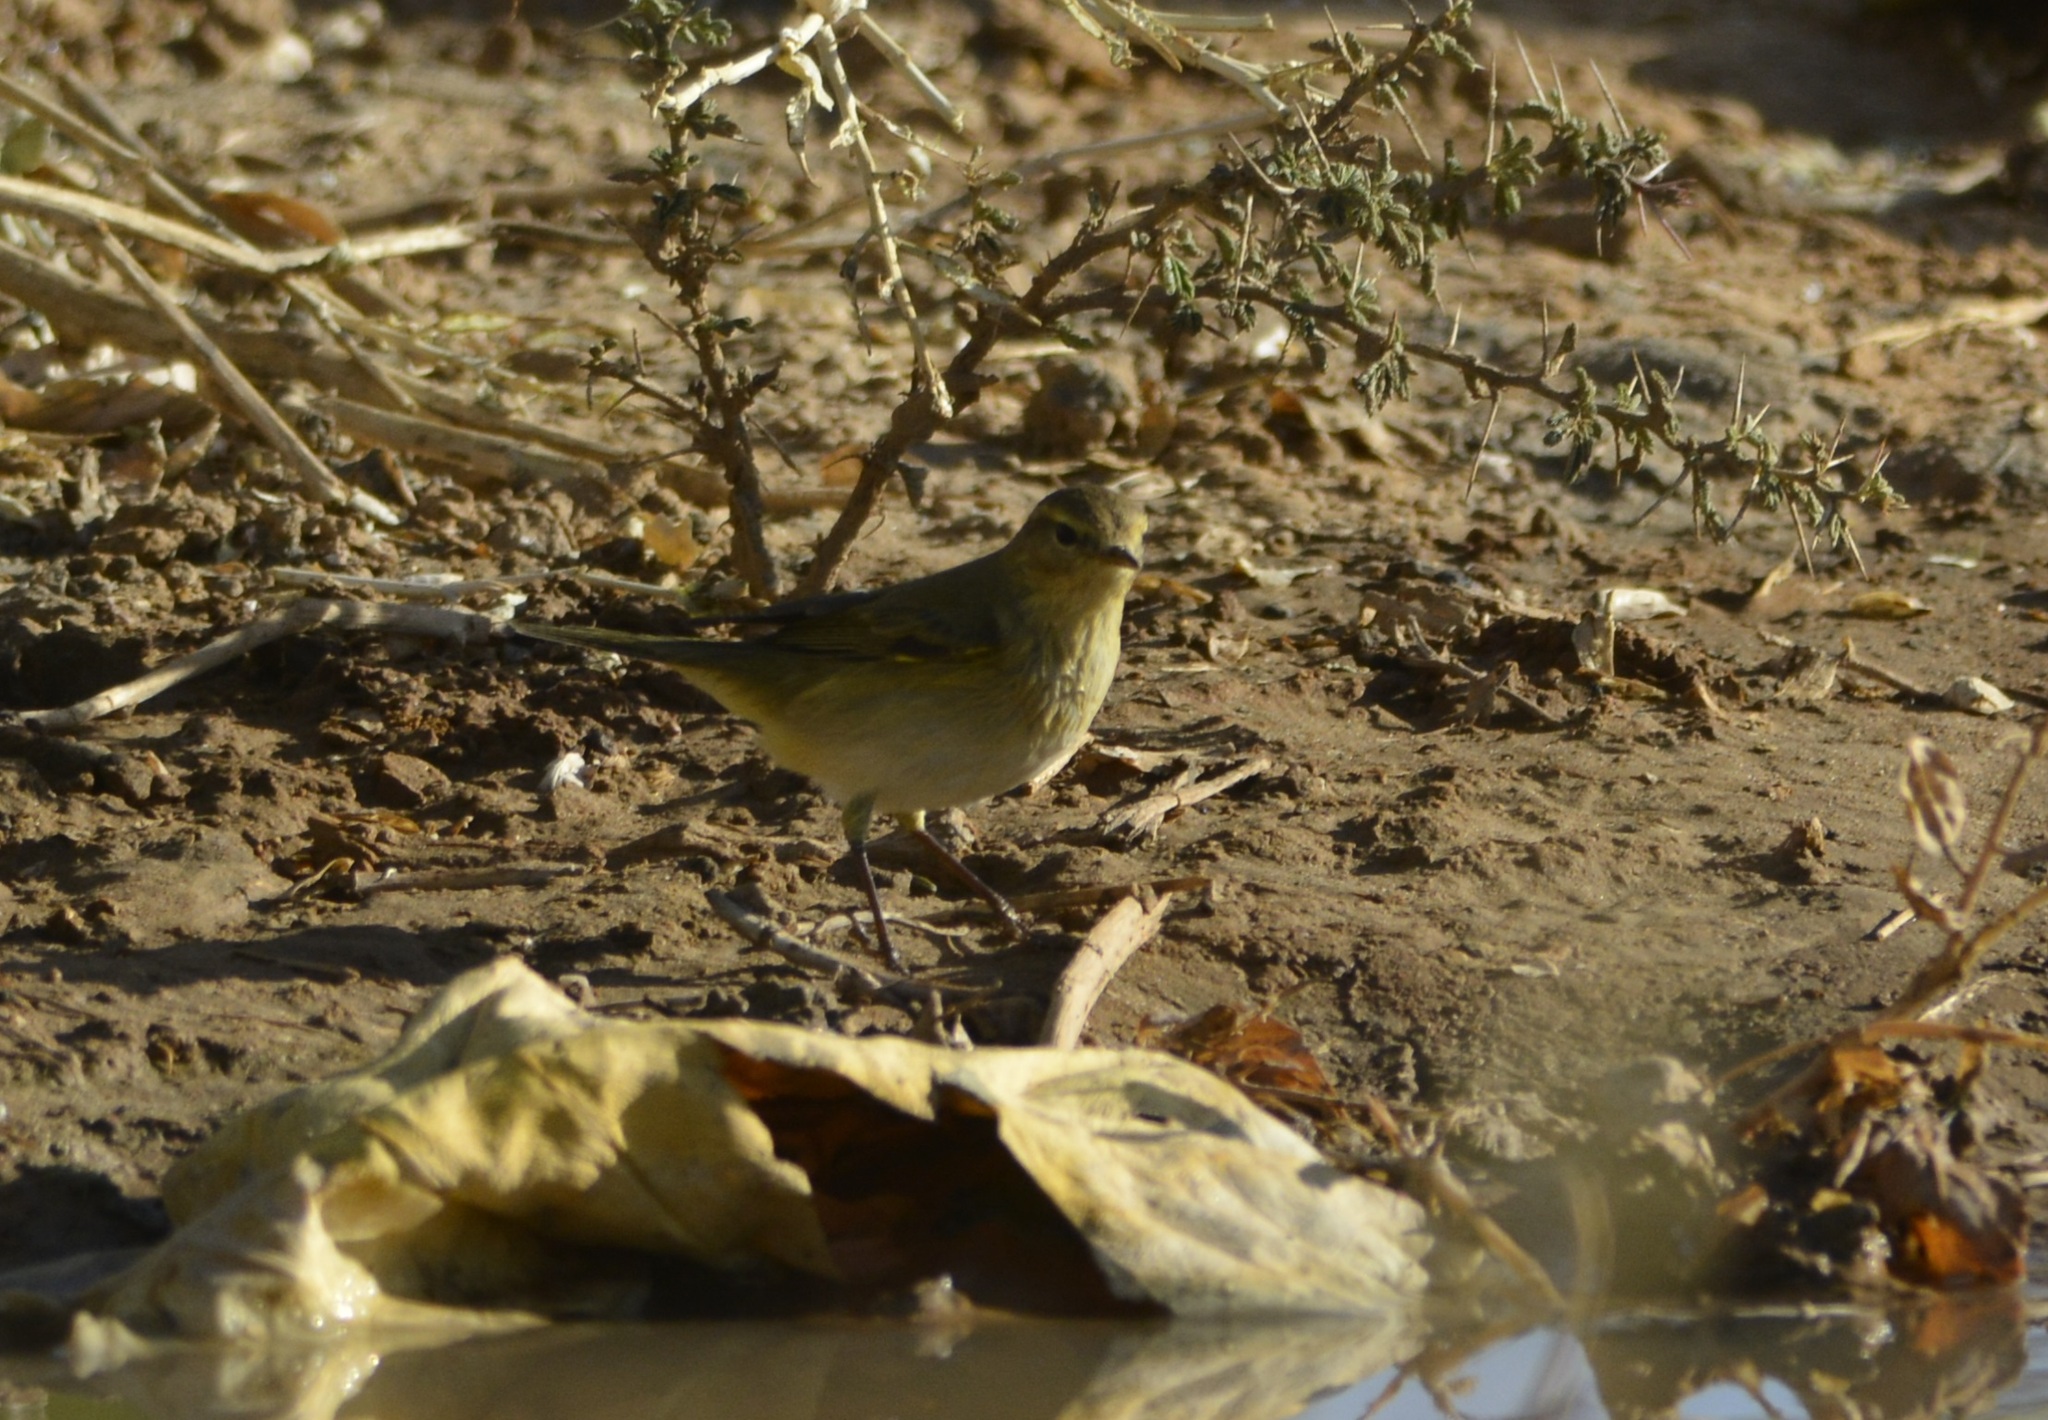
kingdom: Animalia
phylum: Chordata
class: Aves
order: Passeriformes
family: Phylloscopidae
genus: Phylloscopus
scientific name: Phylloscopus collybita
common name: Common chiffchaff
